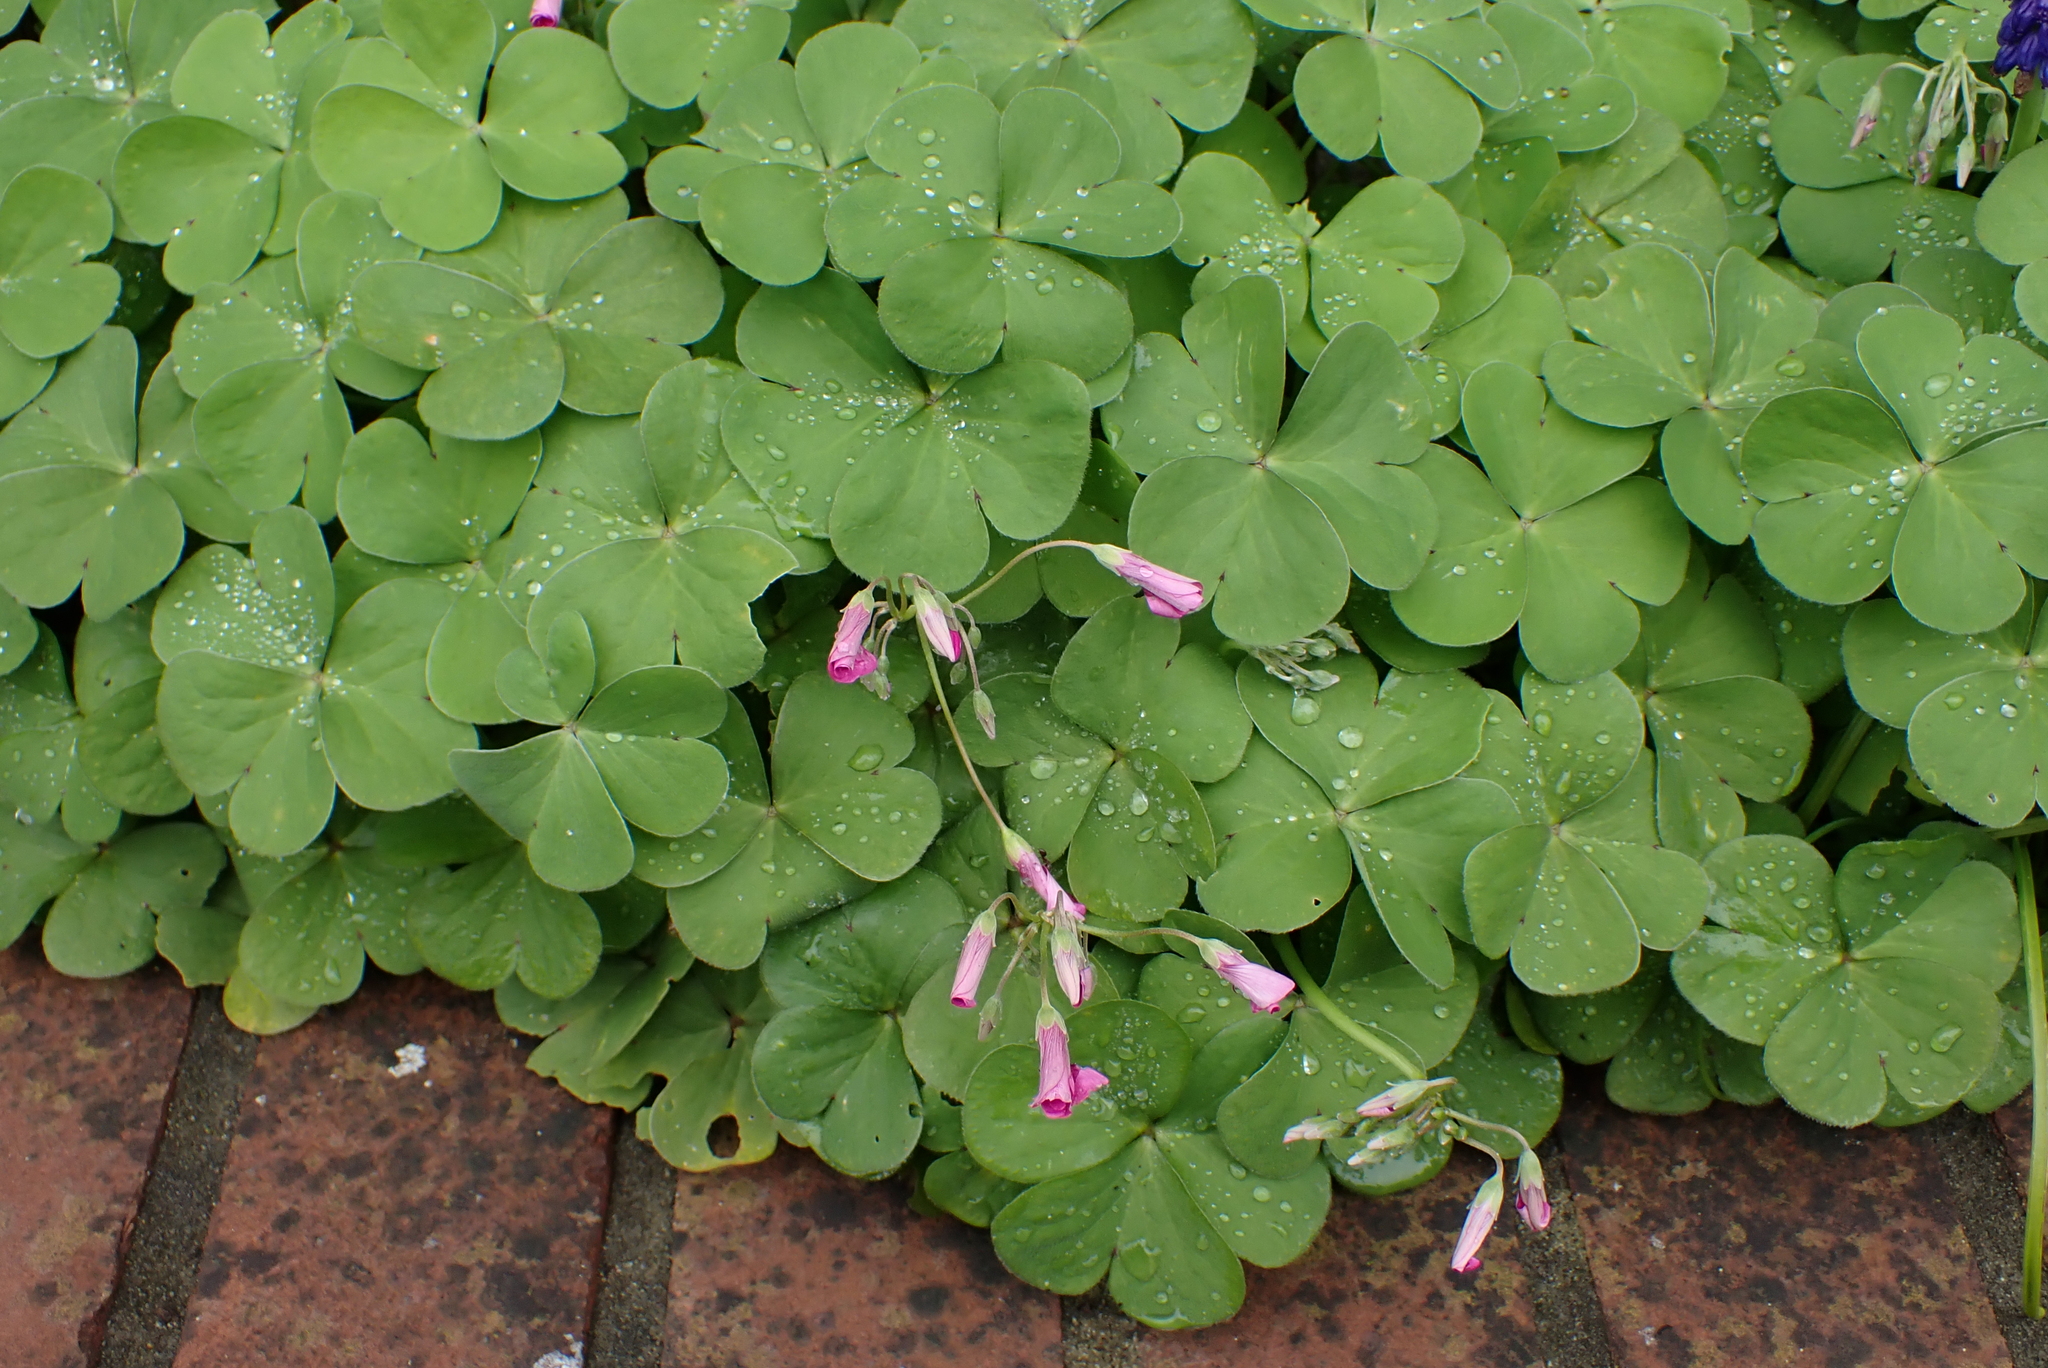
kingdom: Plantae
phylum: Tracheophyta
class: Magnoliopsida
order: Oxalidales
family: Oxalidaceae
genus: Oxalis
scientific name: Oxalis articulata
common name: Pink-sorrel
